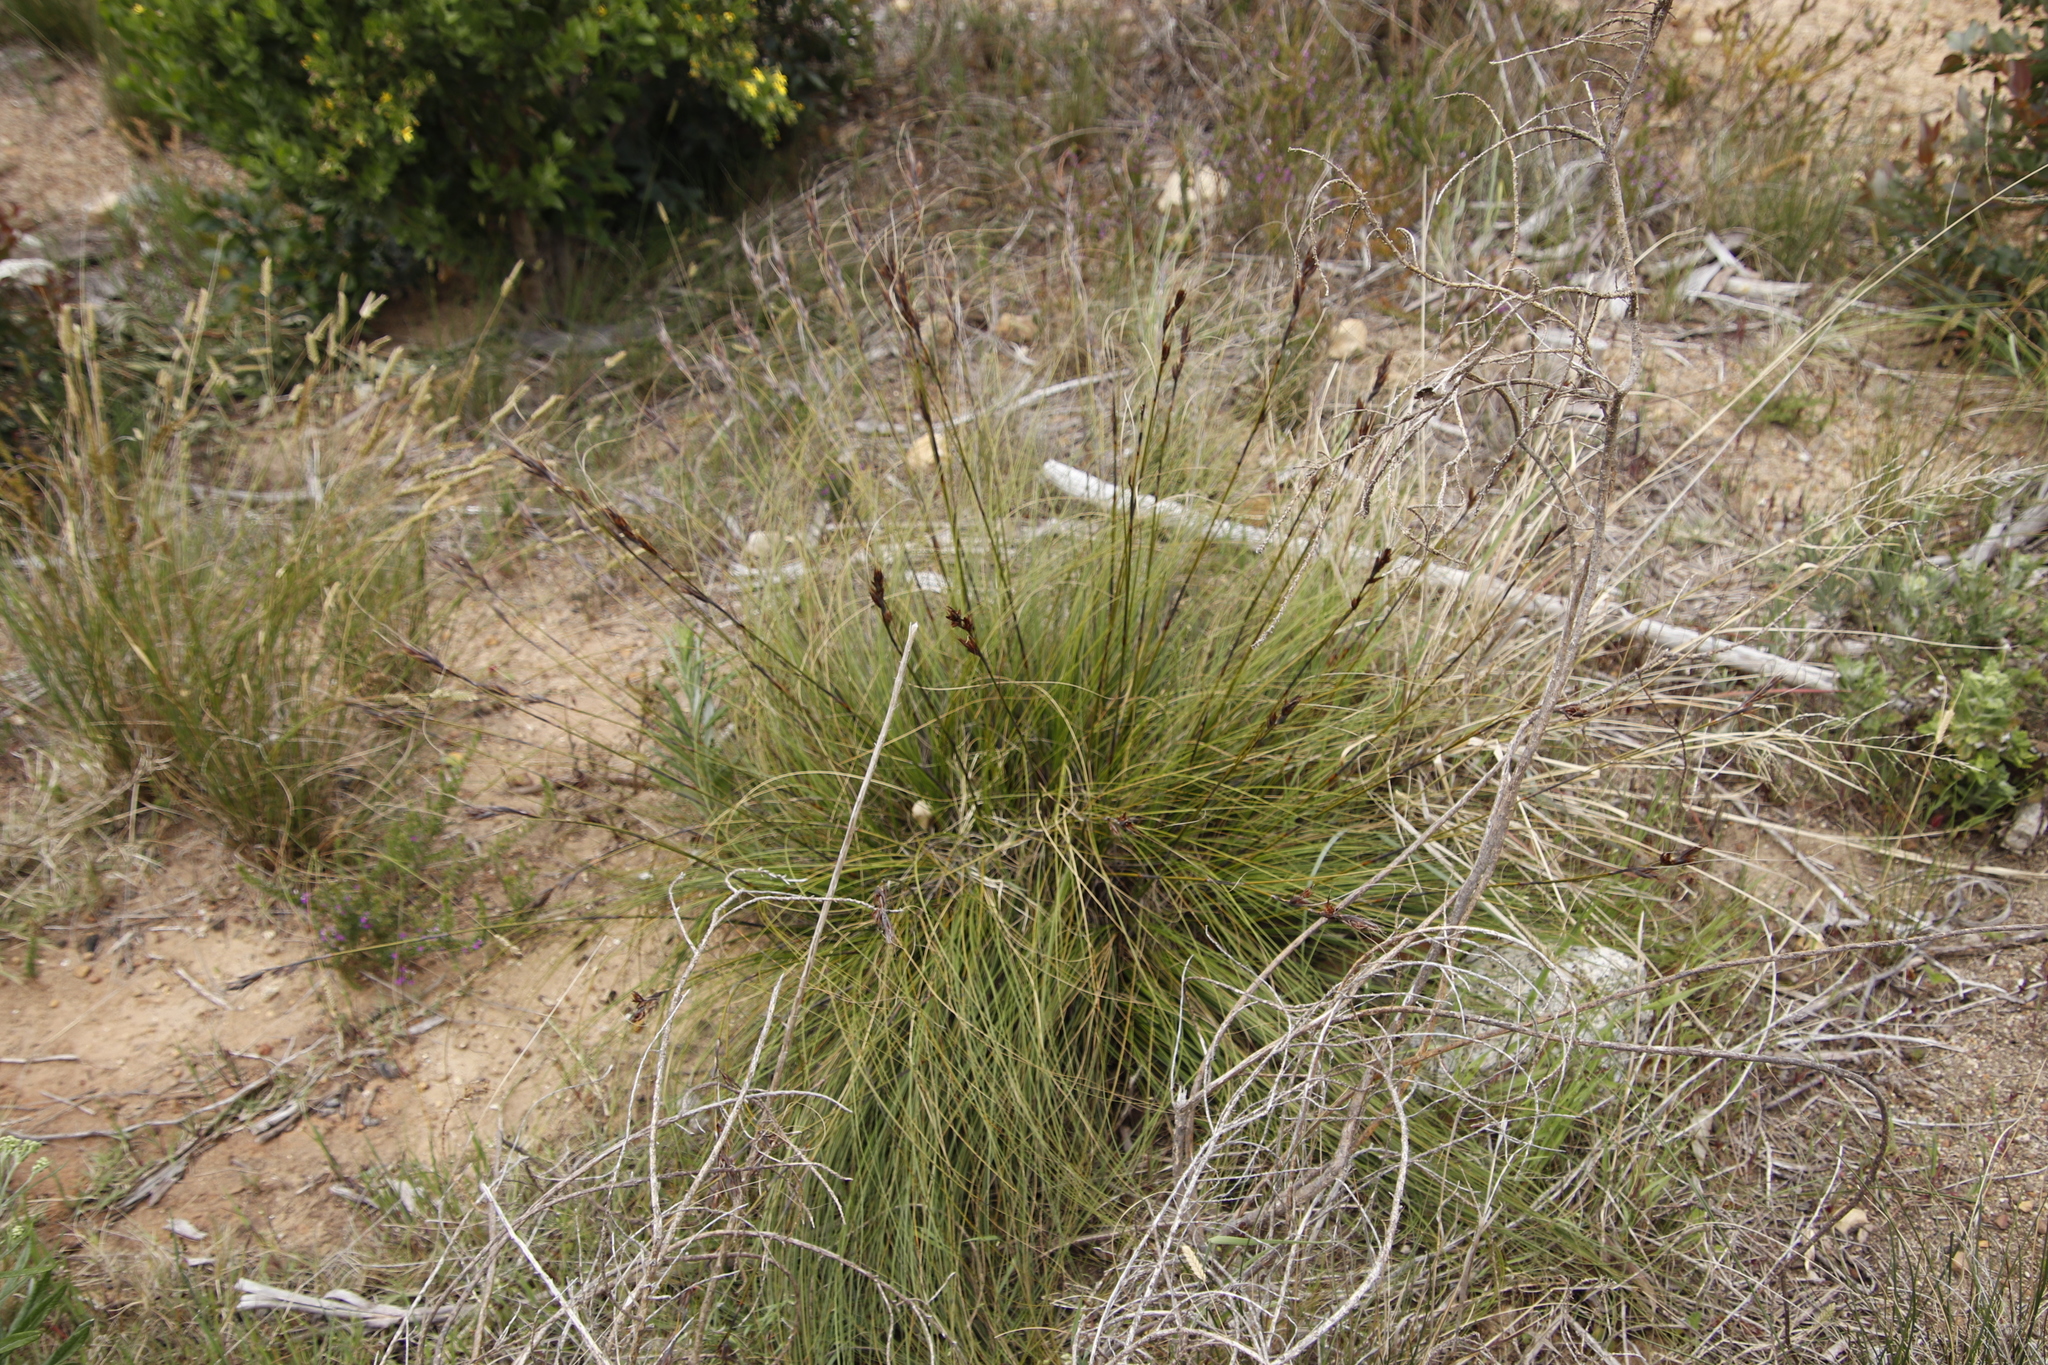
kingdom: Plantae
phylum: Tracheophyta
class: Liliopsida
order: Poales
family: Cyperaceae
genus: Tetraria
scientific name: Tetraria ustulata
